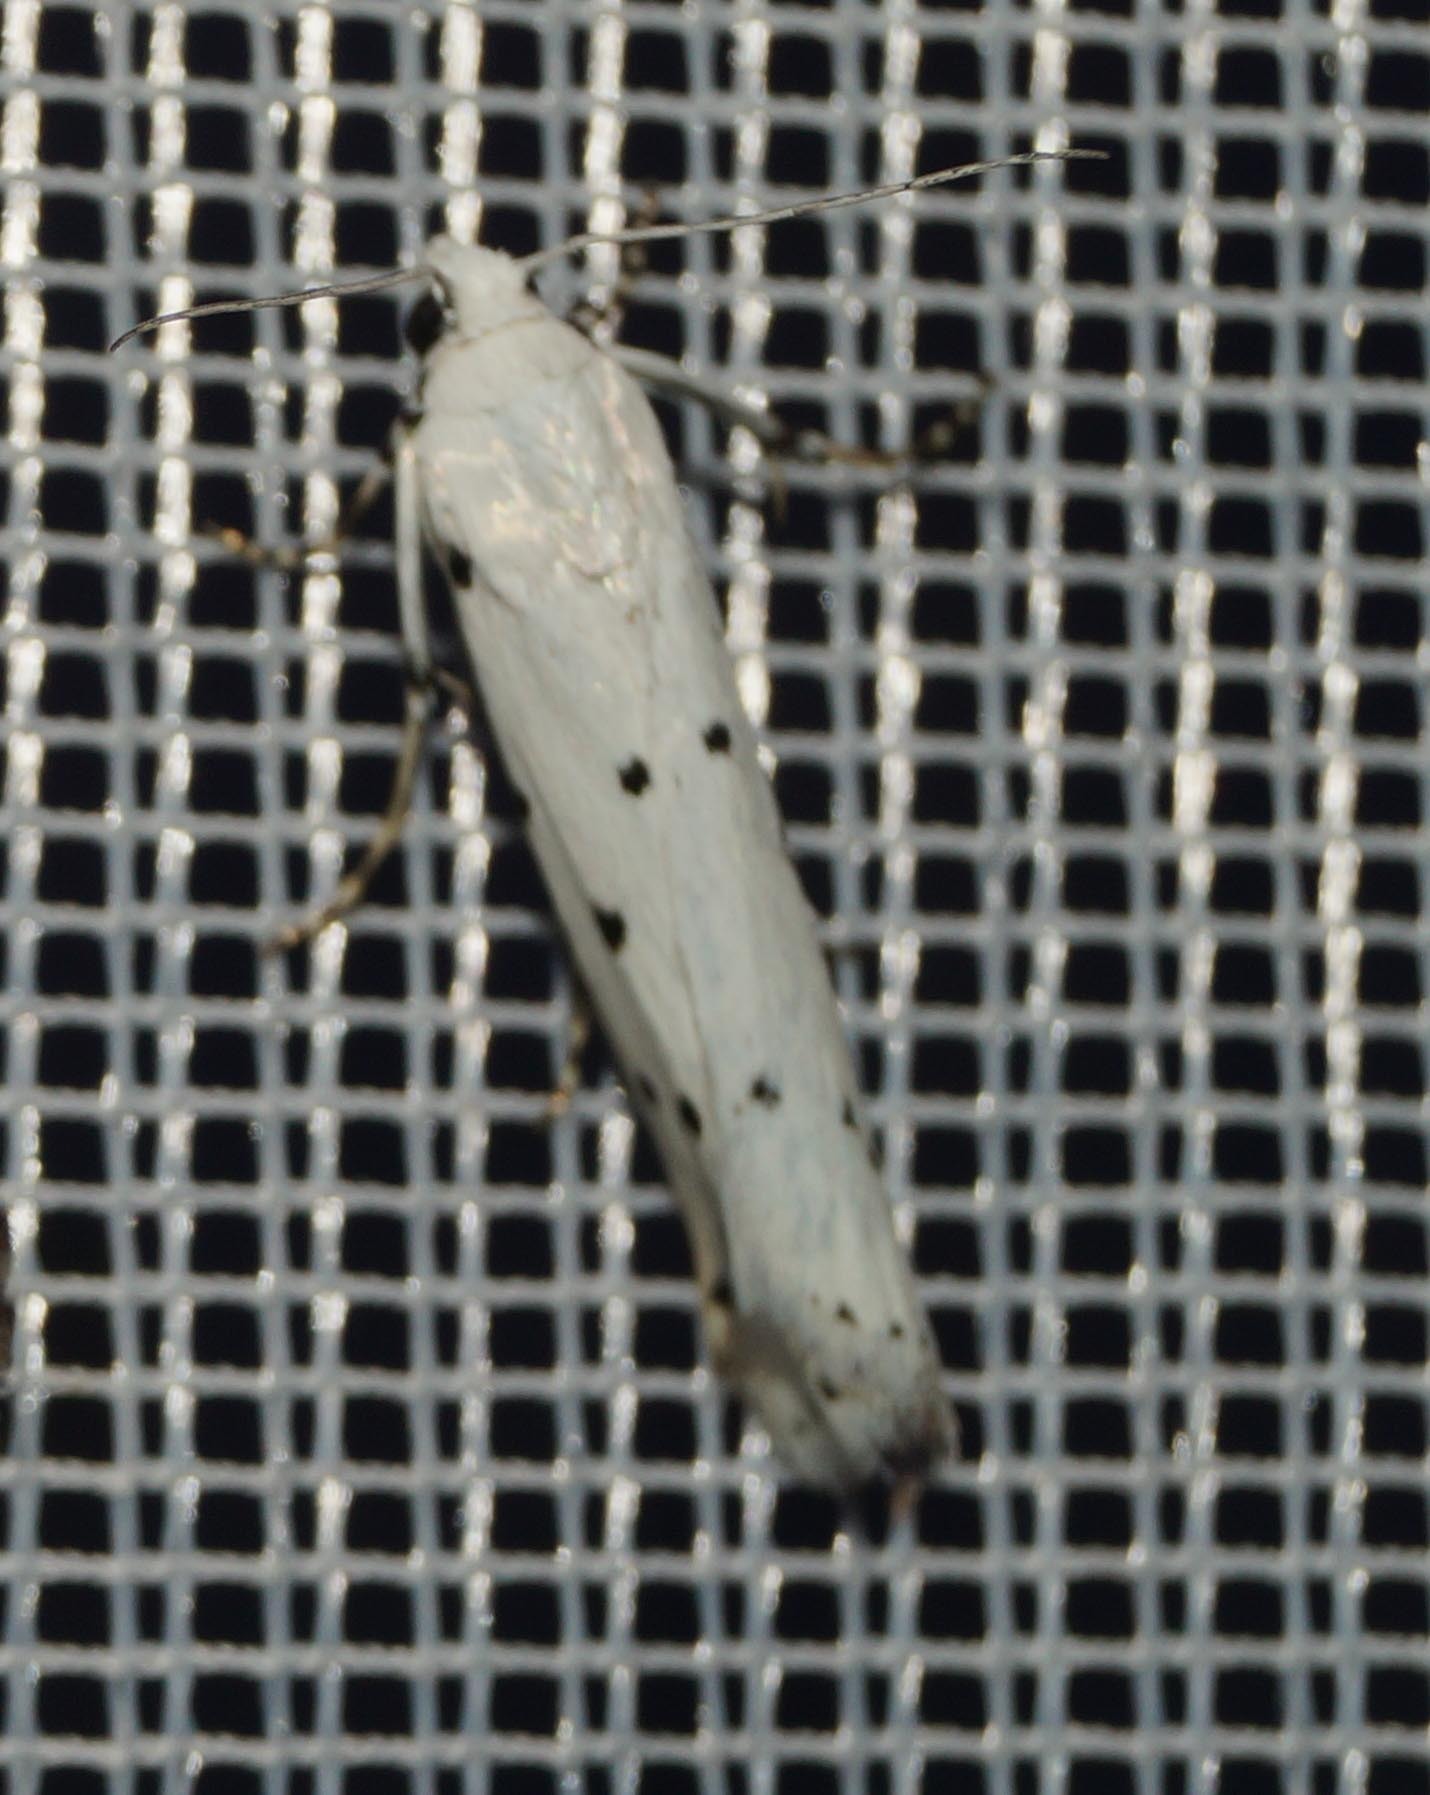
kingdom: Animalia
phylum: Arthropoda
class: Insecta
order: Lepidoptera
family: Pyralidae
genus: Myelois
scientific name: Myelois circumvoluta
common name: Thistle ermine
